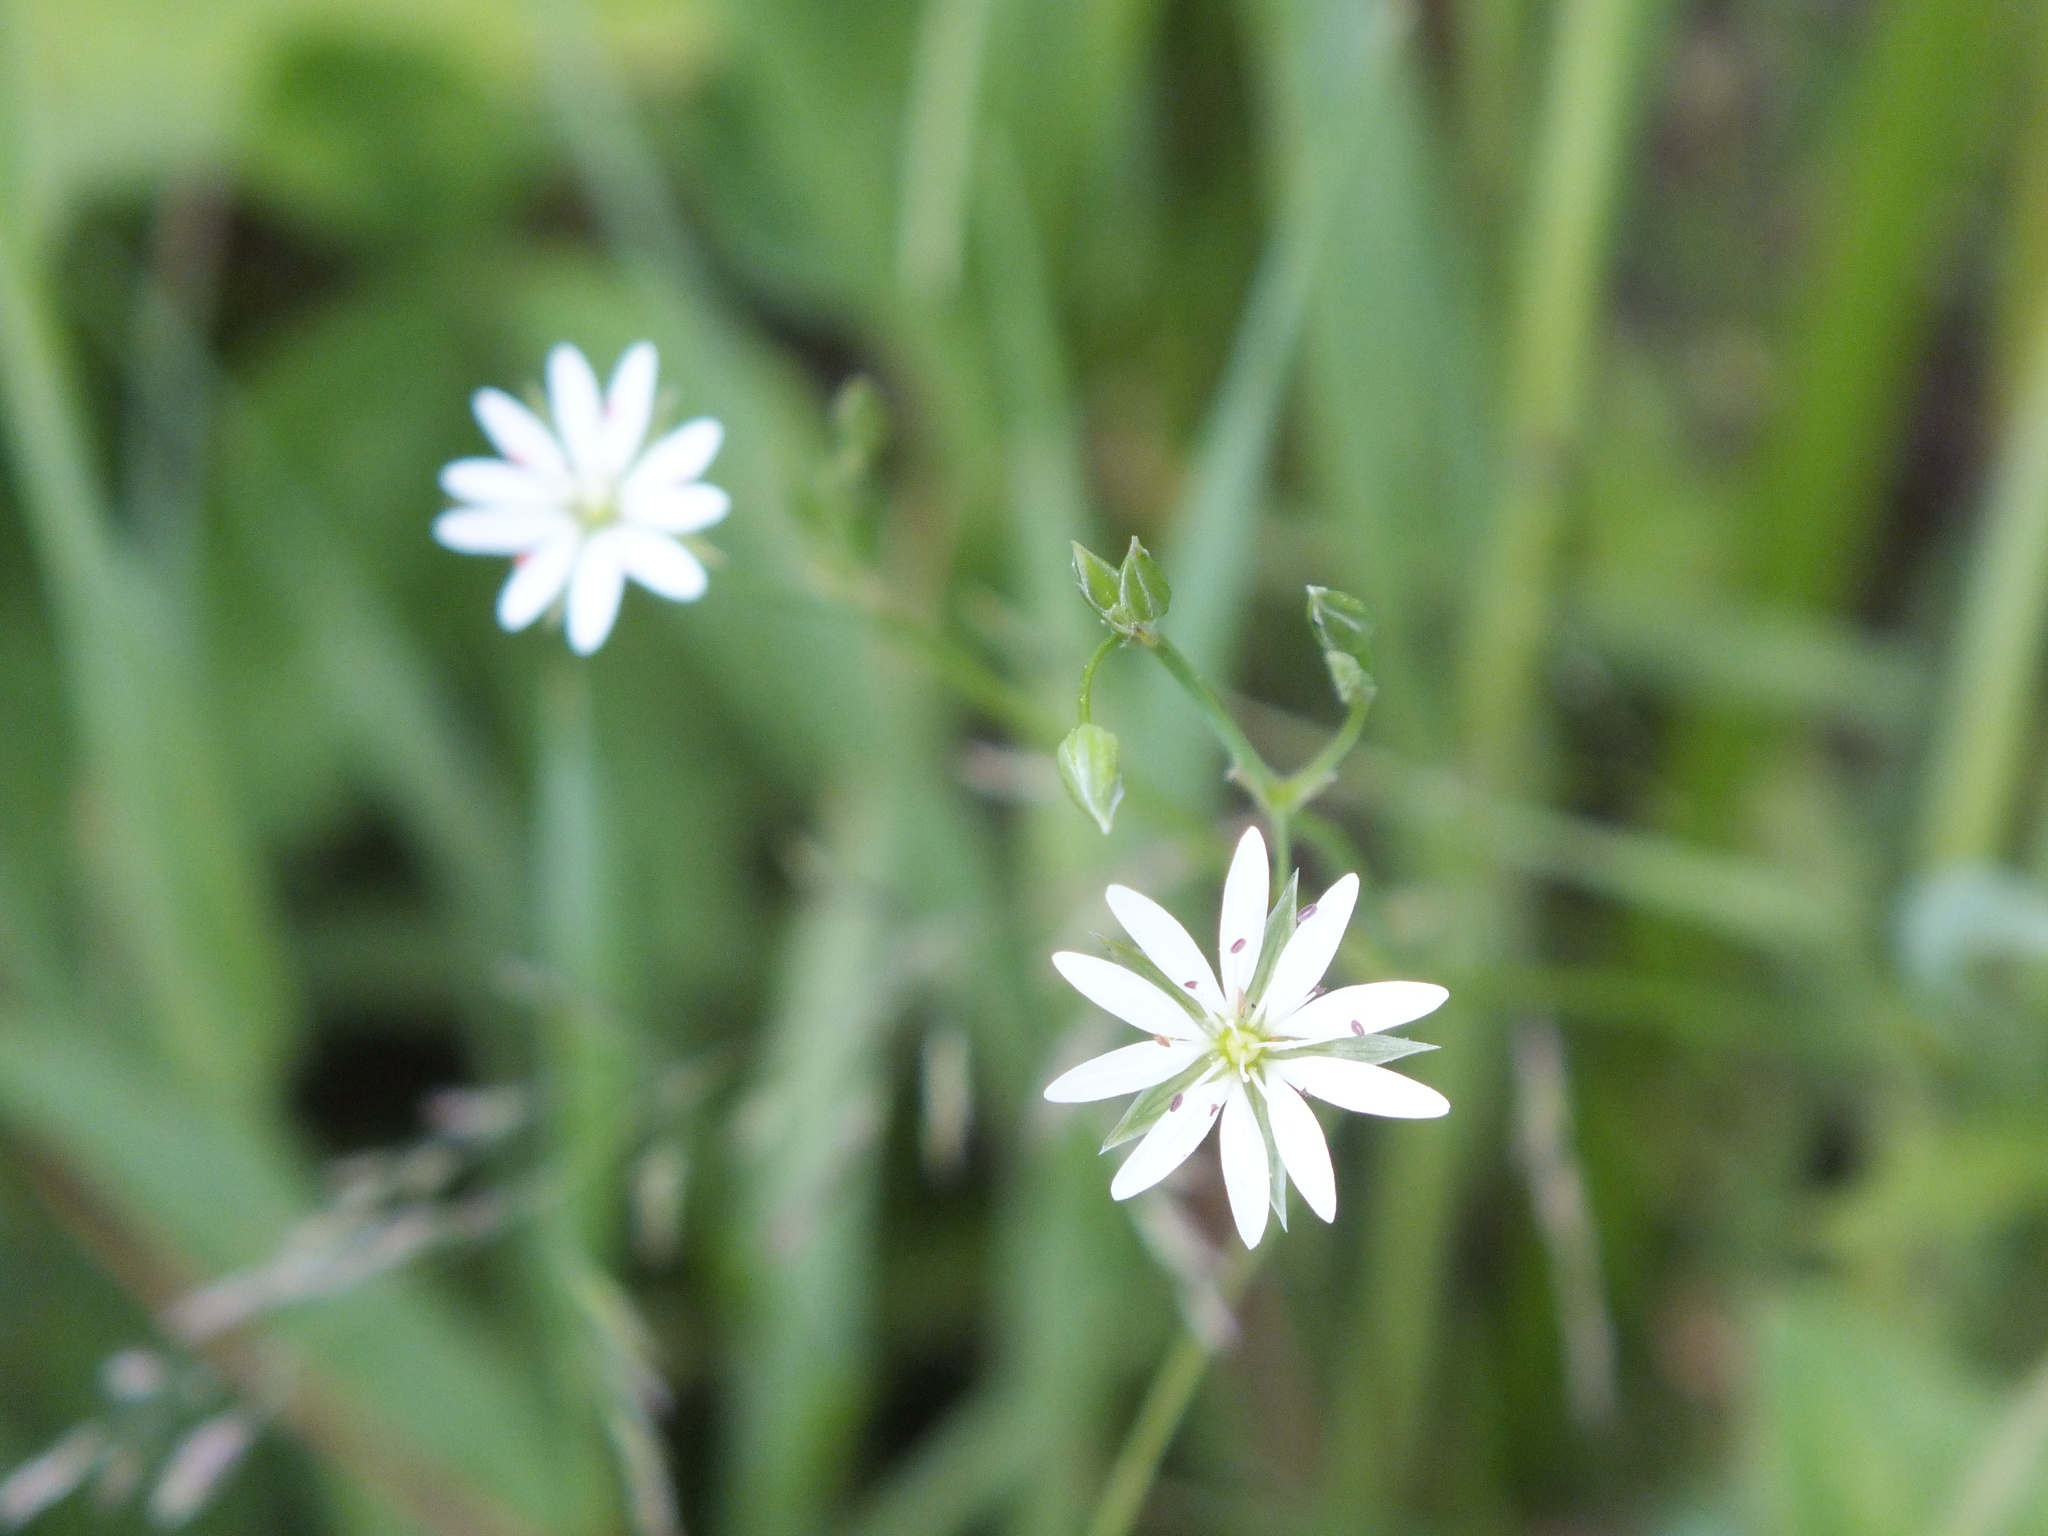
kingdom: Plantae
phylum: Tracheophyta
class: Magnoliopsida
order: Caryophyllales
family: Caryophyllaceae
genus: Stellaria
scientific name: Stellaria graminea
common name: Grass-like starwort
